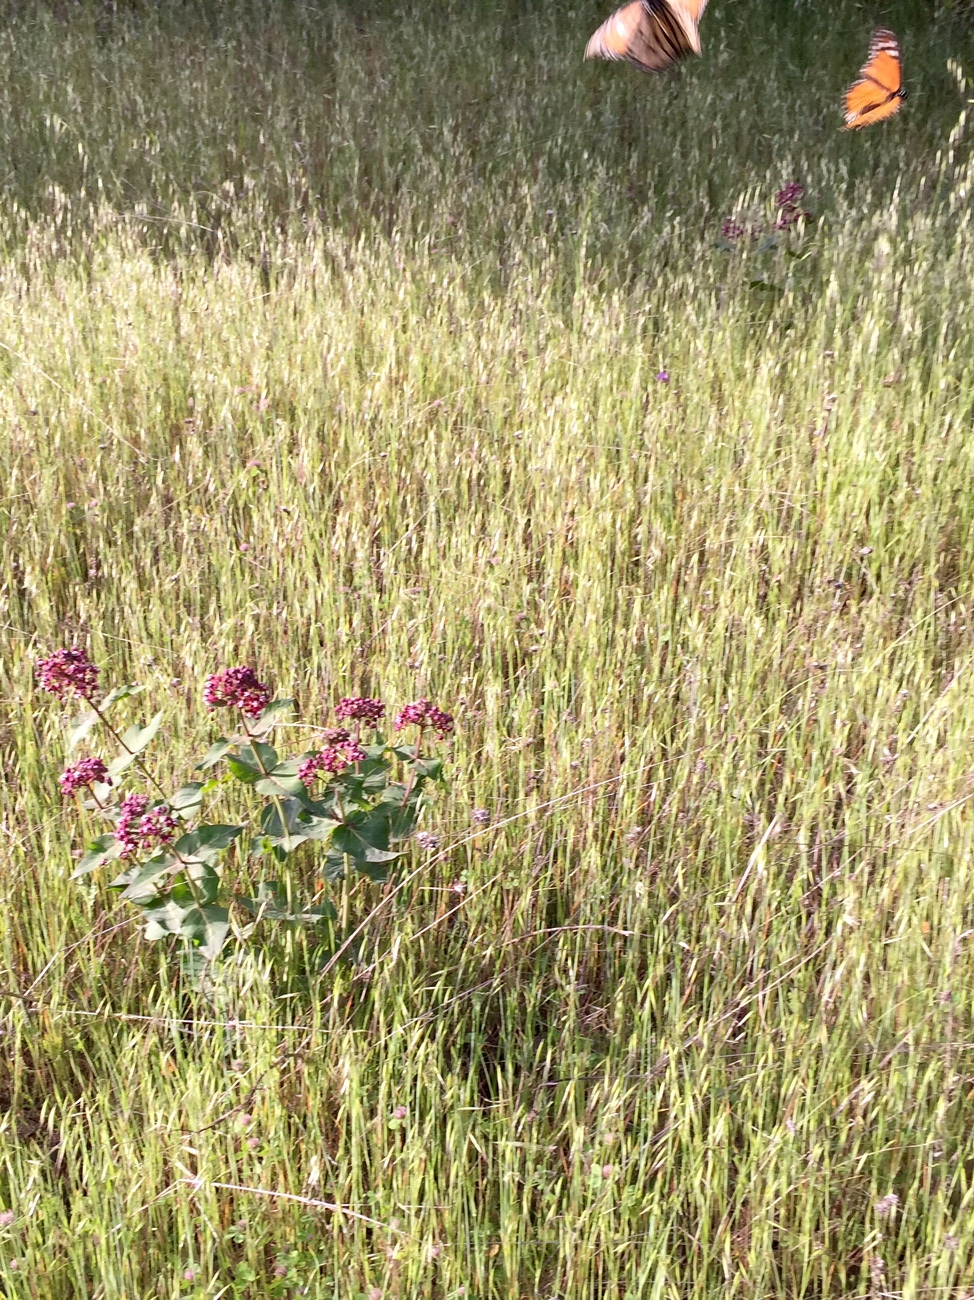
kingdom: Plantae
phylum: Tracheophyta
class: Magnoliopsida
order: Gentianales
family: Apocynaceae
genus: Asclepias
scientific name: Asclepias cordifolia
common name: Purple milkweed
